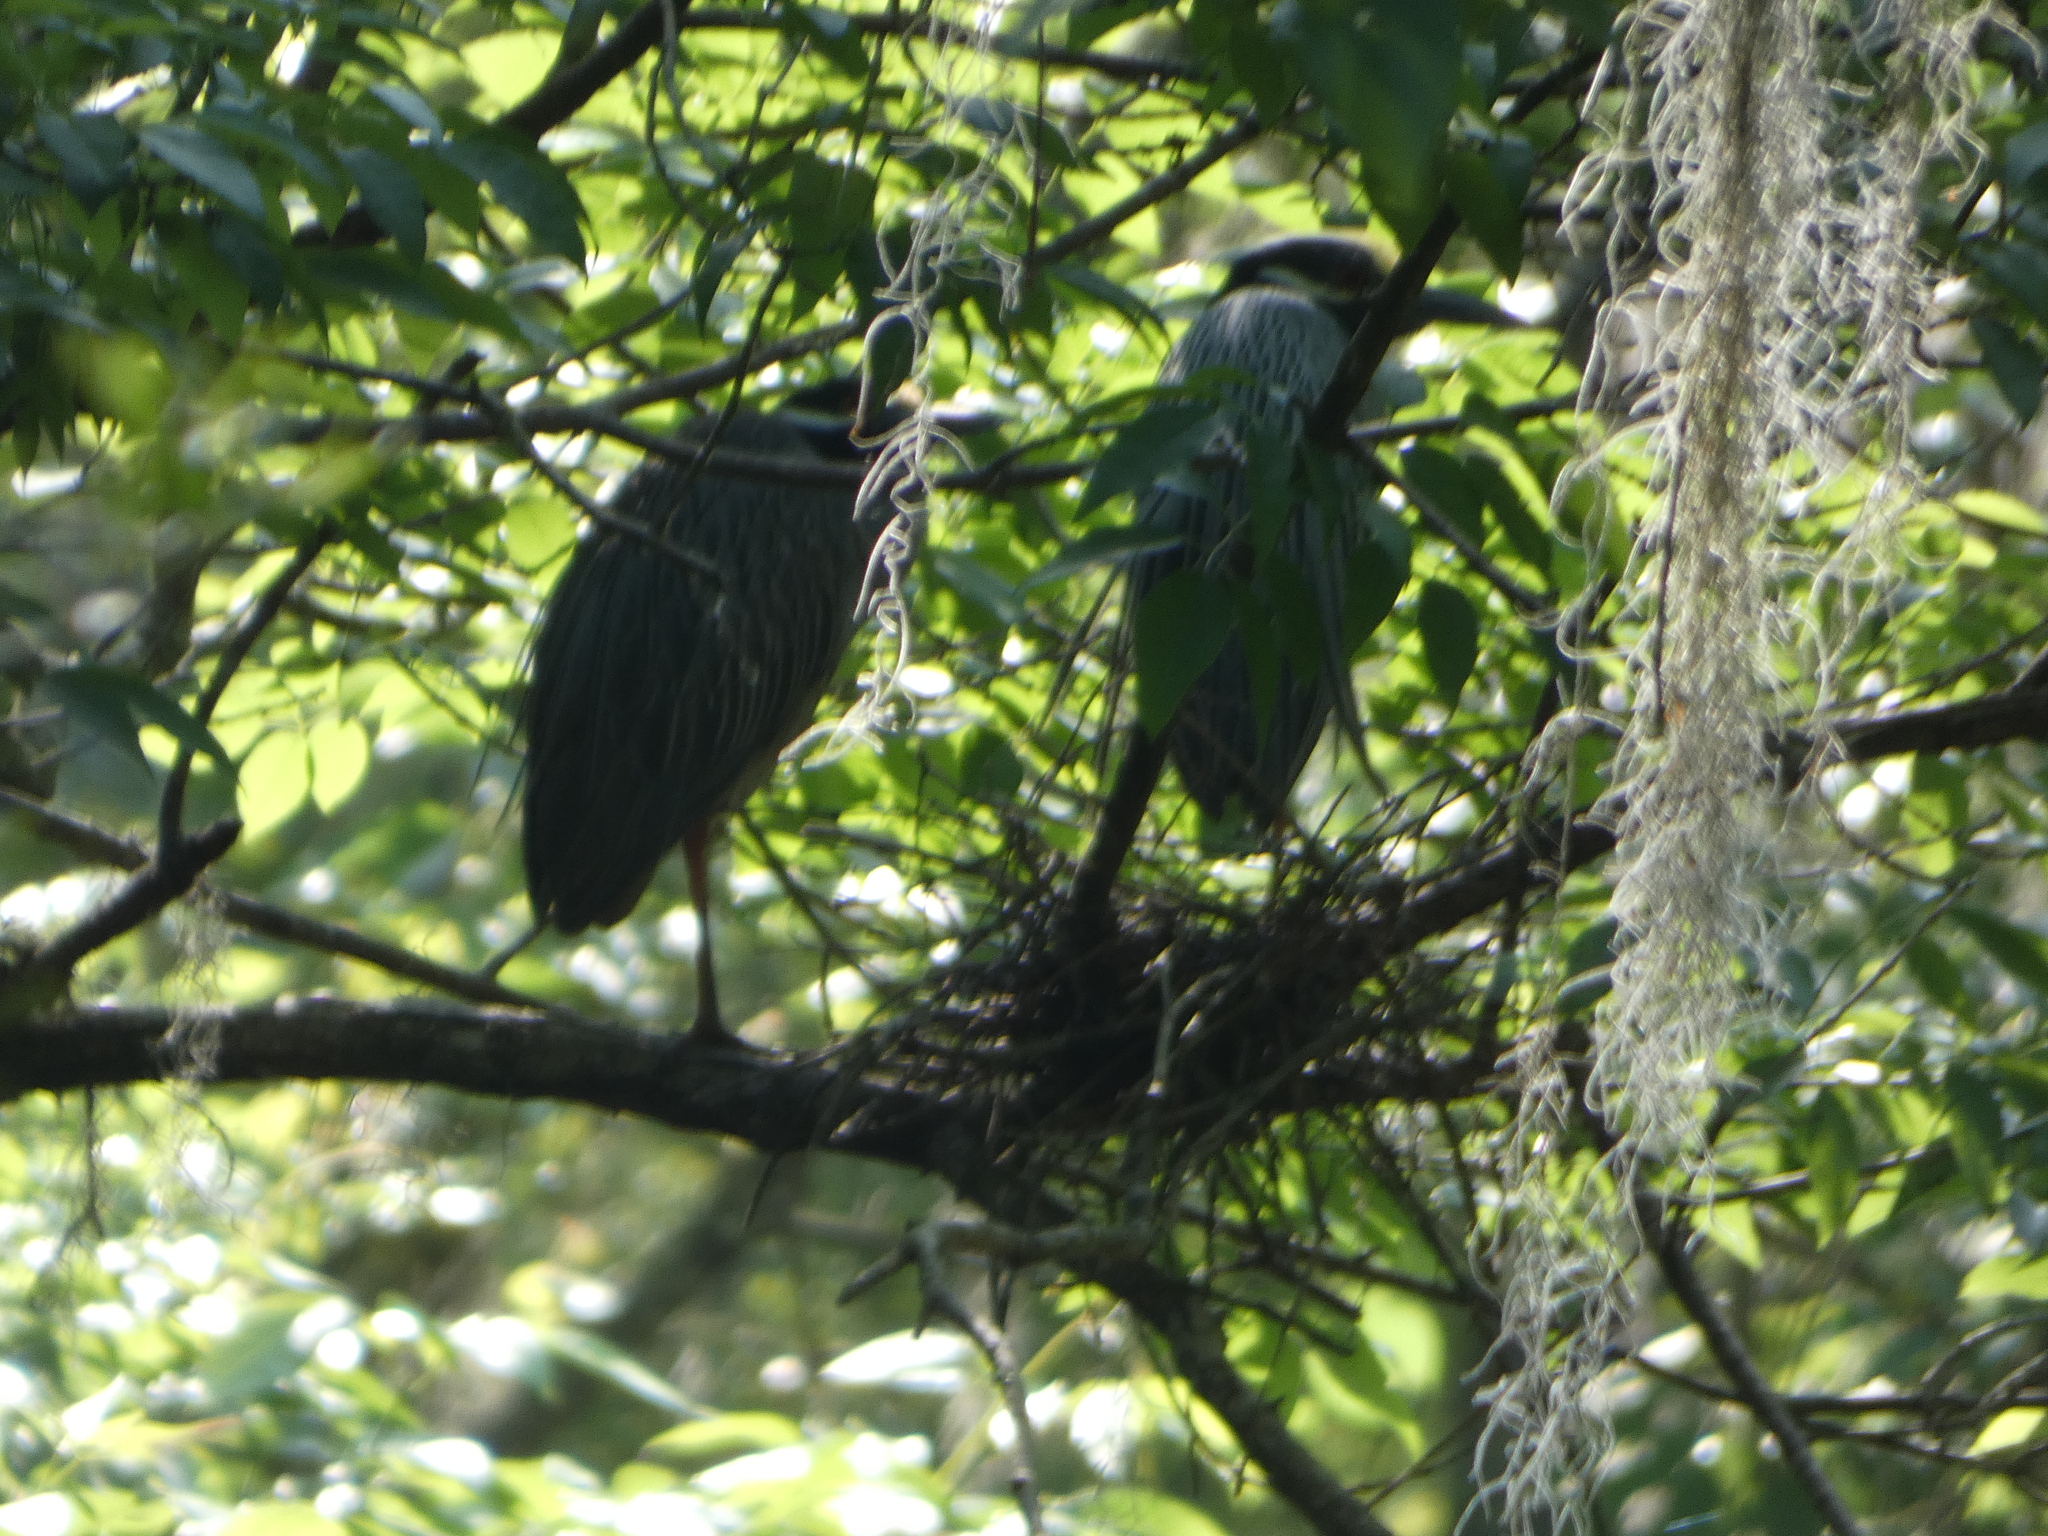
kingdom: Animalia
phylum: Chordata
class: Aves
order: Pelecaniformes
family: Ardeidae
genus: Nyctanassa
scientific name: Nyctanassa violacea
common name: Yellow-crowned night heron
